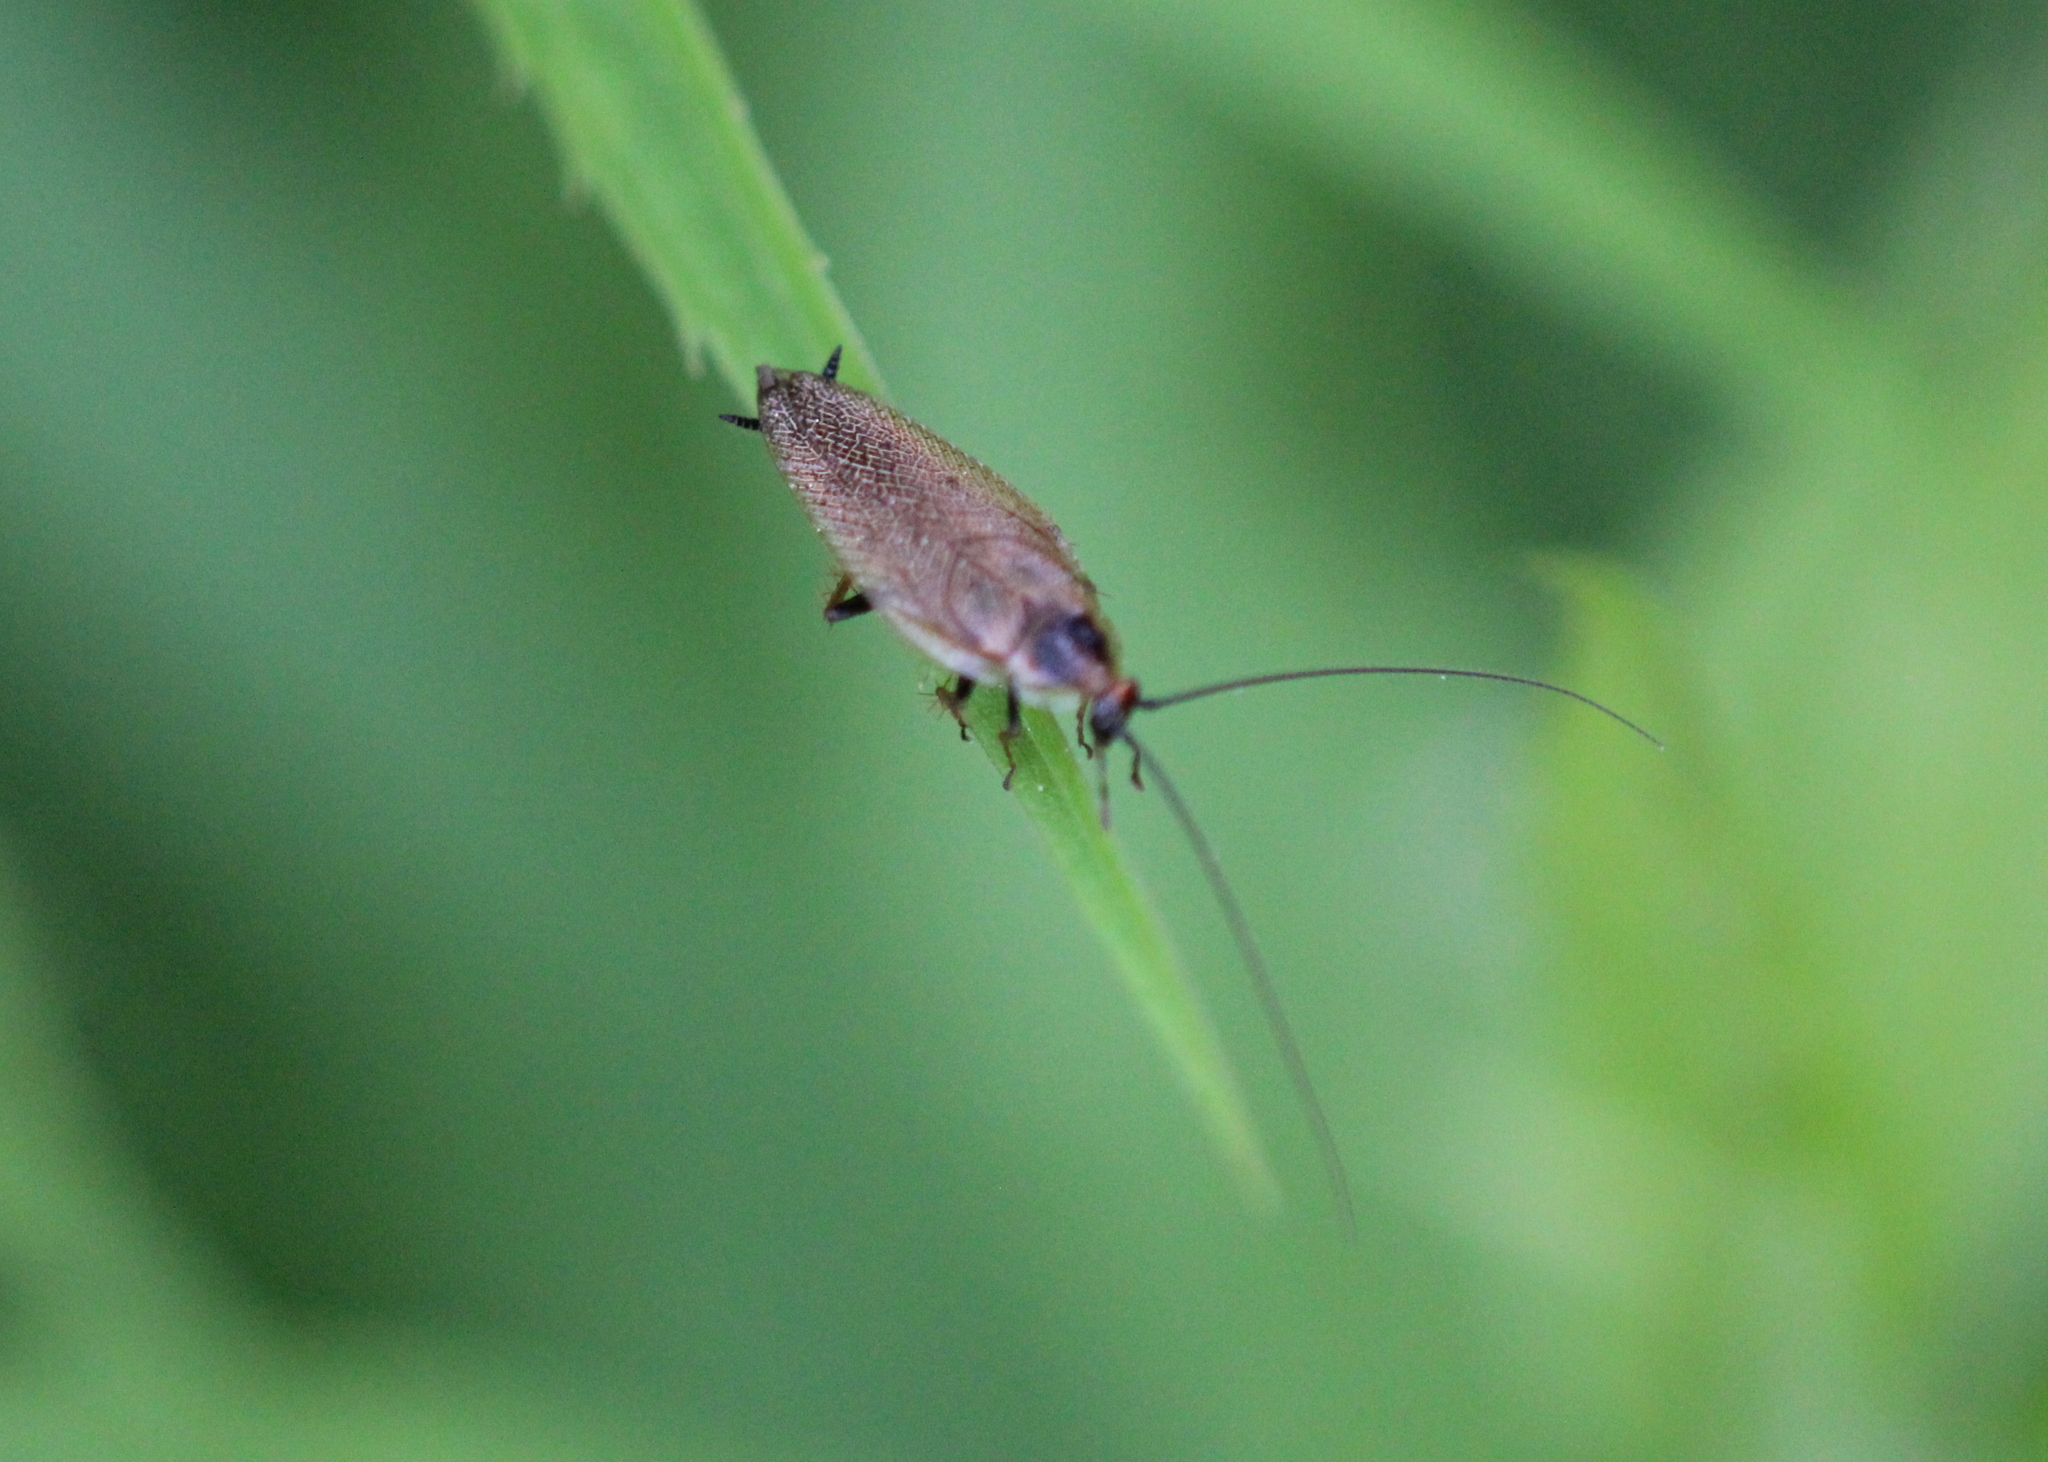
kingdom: Animalia
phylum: Arthropoda
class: Insecta
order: Blattodea
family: Ectobiidae
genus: Ectobius
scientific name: Ectobius lapponicus
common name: Dusky cockroach
